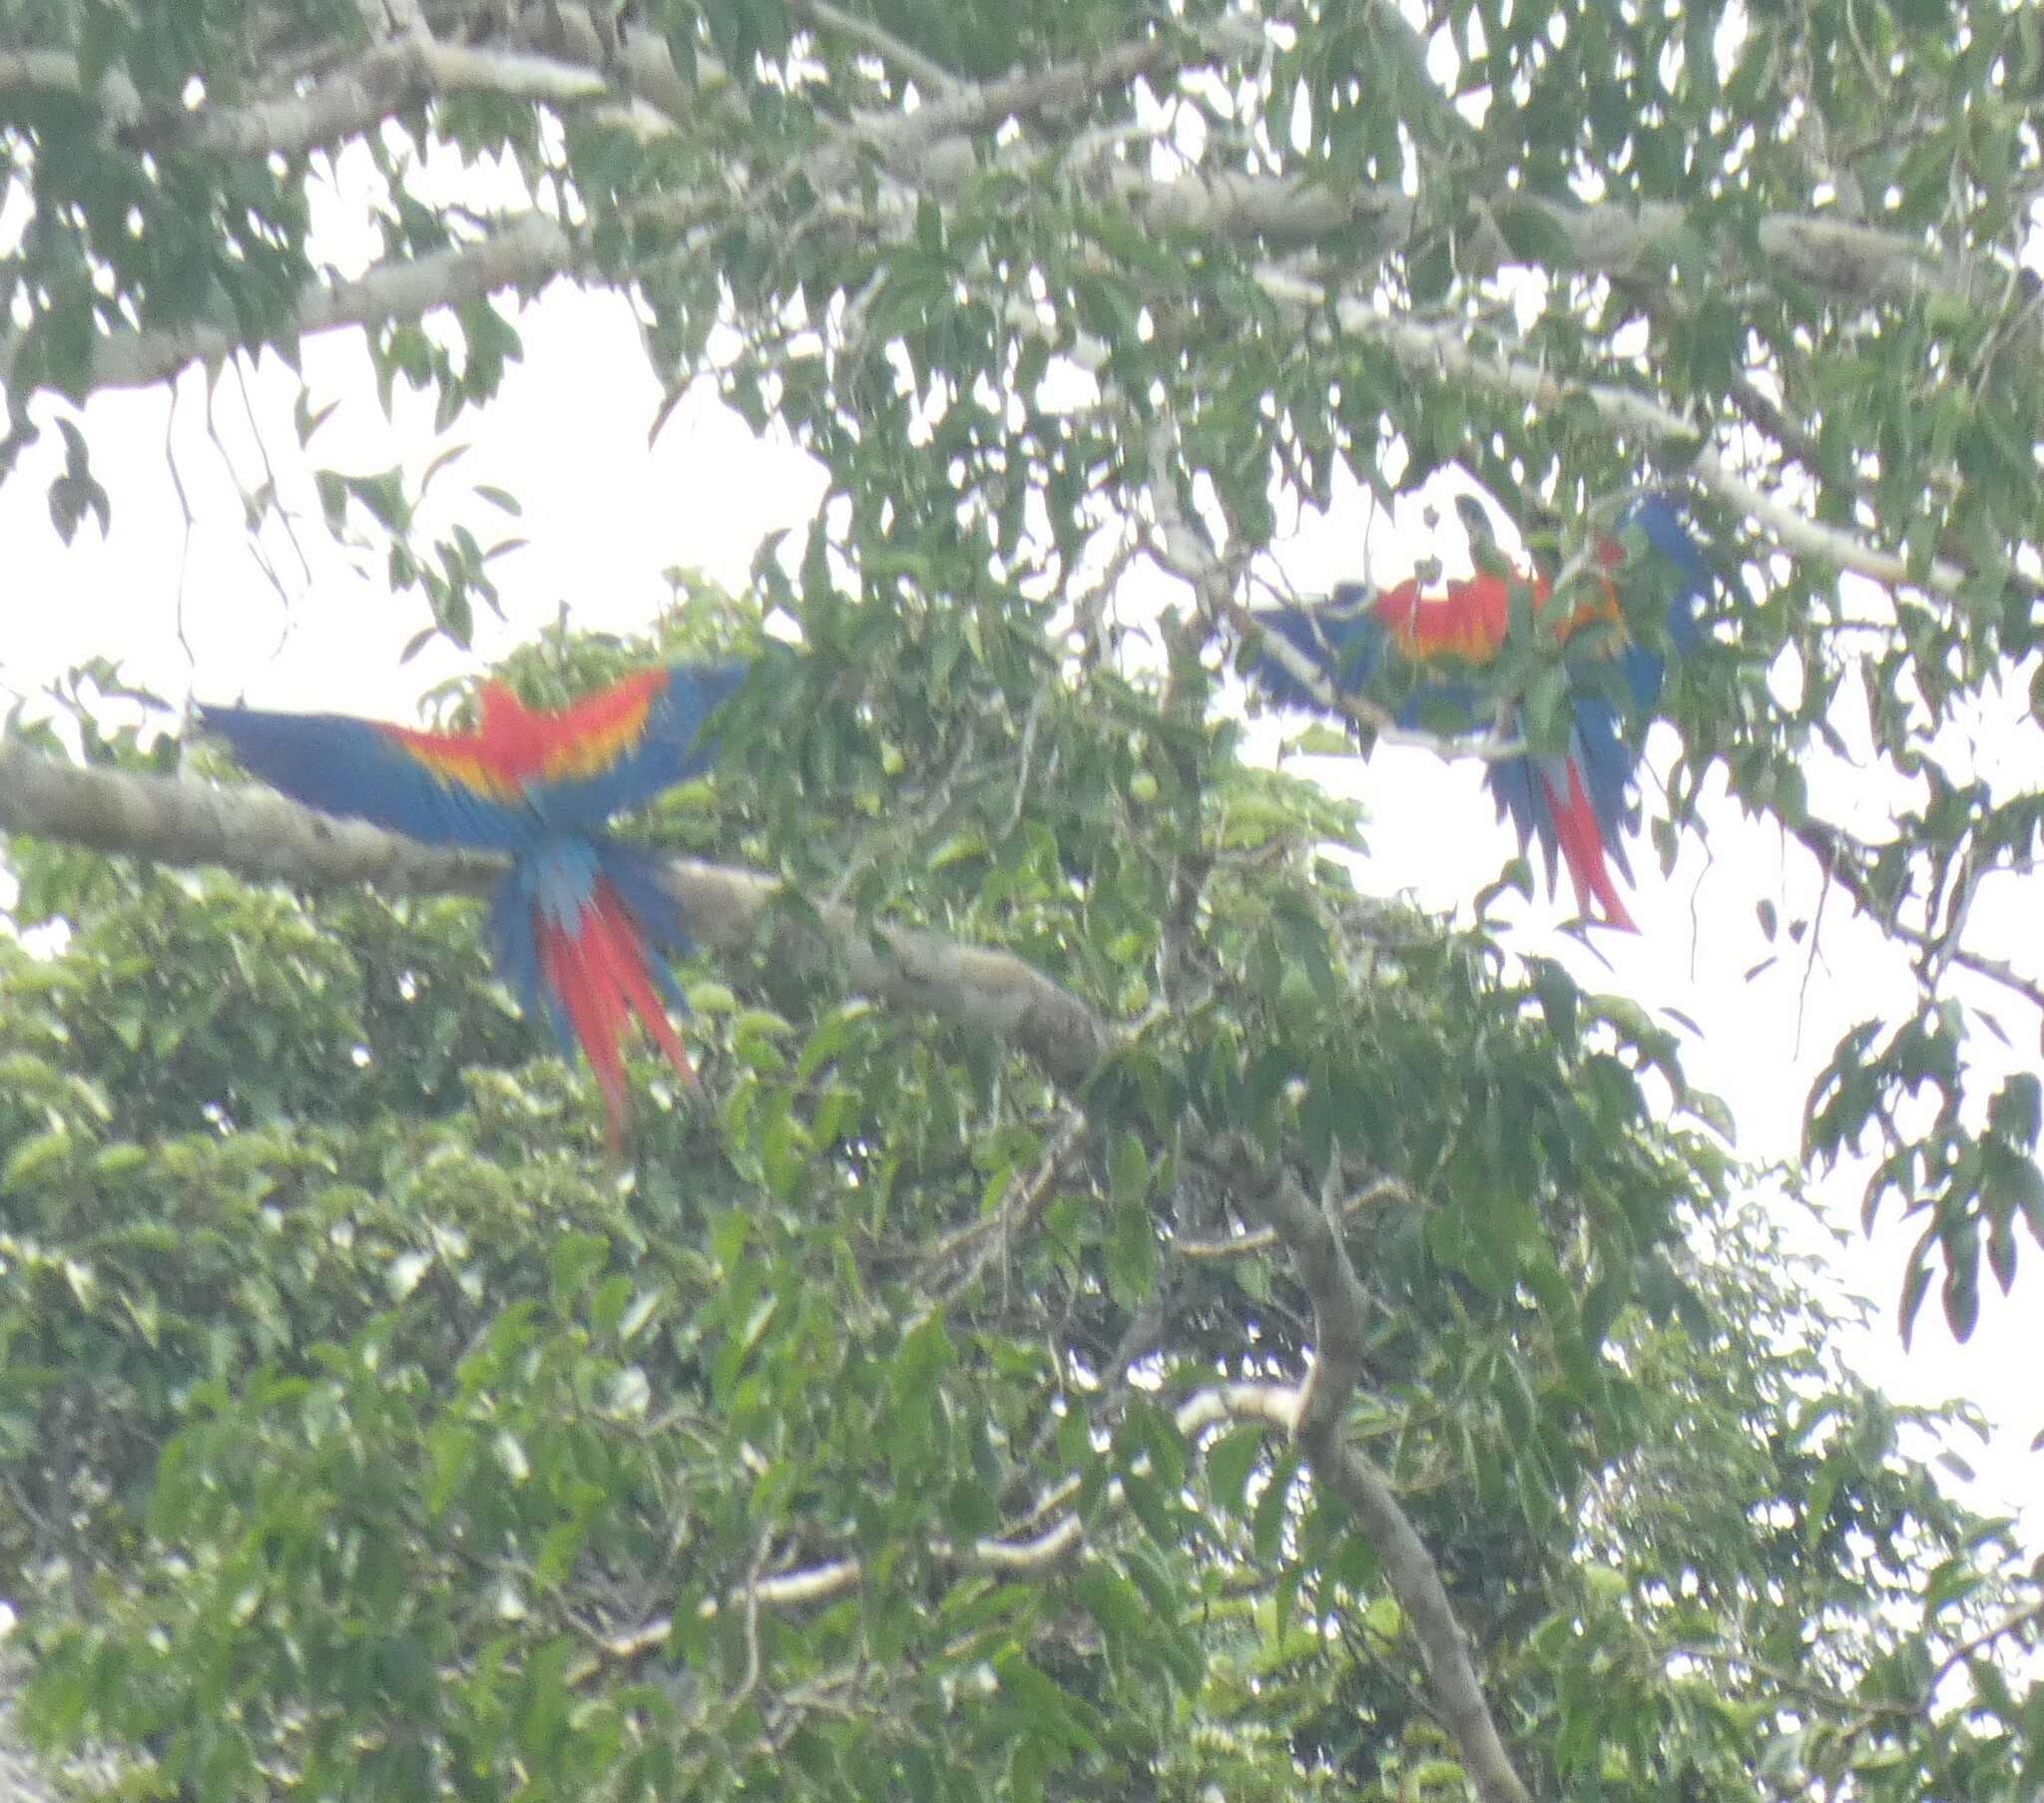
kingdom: Animalia
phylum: Chordata
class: Aves
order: Psittaciformes
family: Psittacidae
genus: Ara
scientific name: Ara macao
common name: Scarlet macaw
